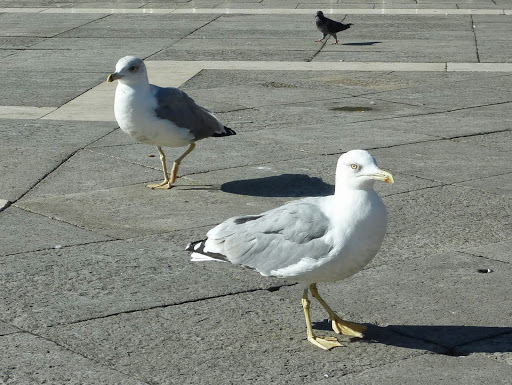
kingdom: Animalia
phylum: Chordata
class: Aves
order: Charadriiformes
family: Laridae
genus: Larus
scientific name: Larus michahellis
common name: Yellow-legged gull
